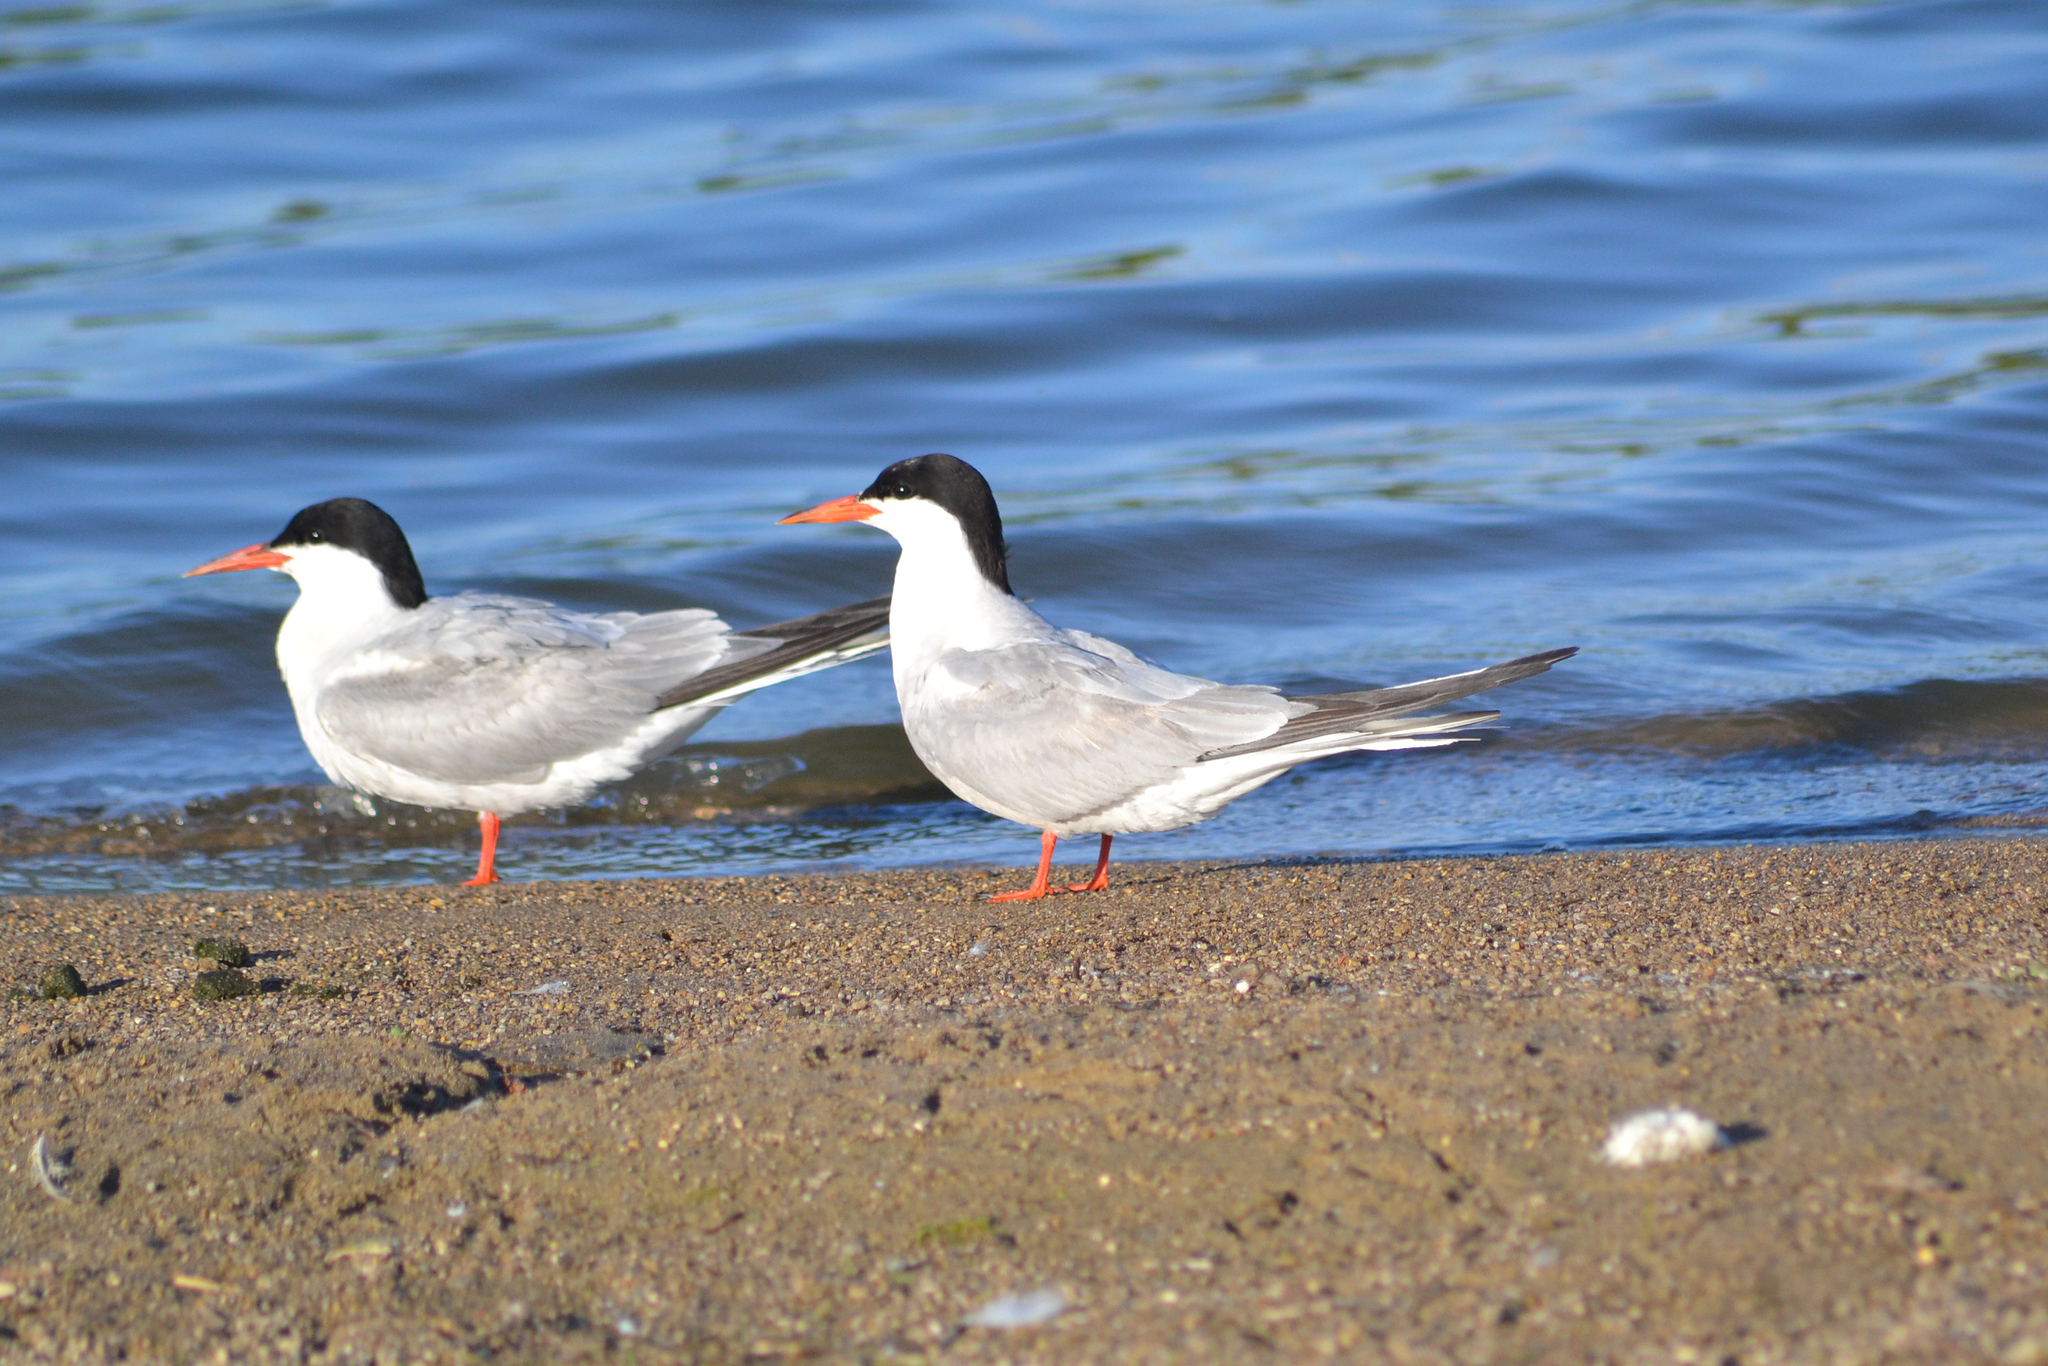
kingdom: Animalia
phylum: Chordata
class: Aves
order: Charadriiformes
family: Laridae
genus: Sterna
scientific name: Sterna hirundo
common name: Common tern
